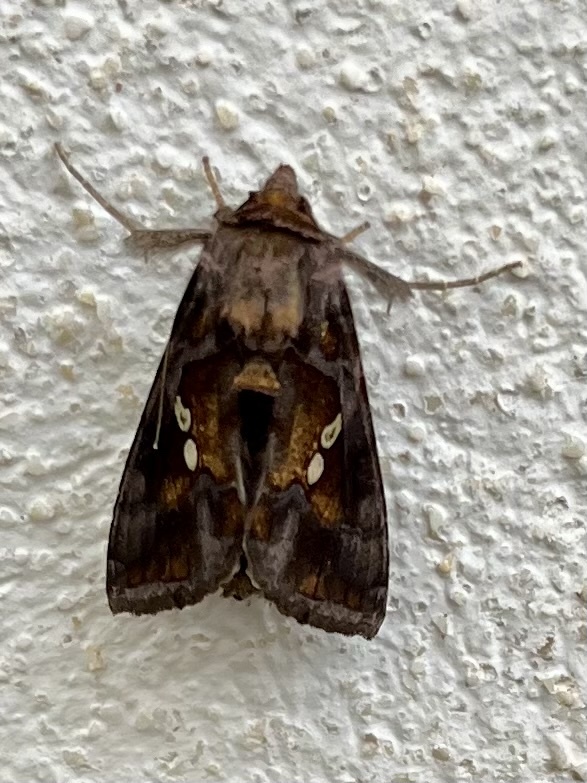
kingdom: Animalia
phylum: Arthropoda
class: Insecta
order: Lepidoptera
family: Noctuidae
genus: Chrysodeixis
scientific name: Chrysodeixis chalcites
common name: Golden twin-spot
